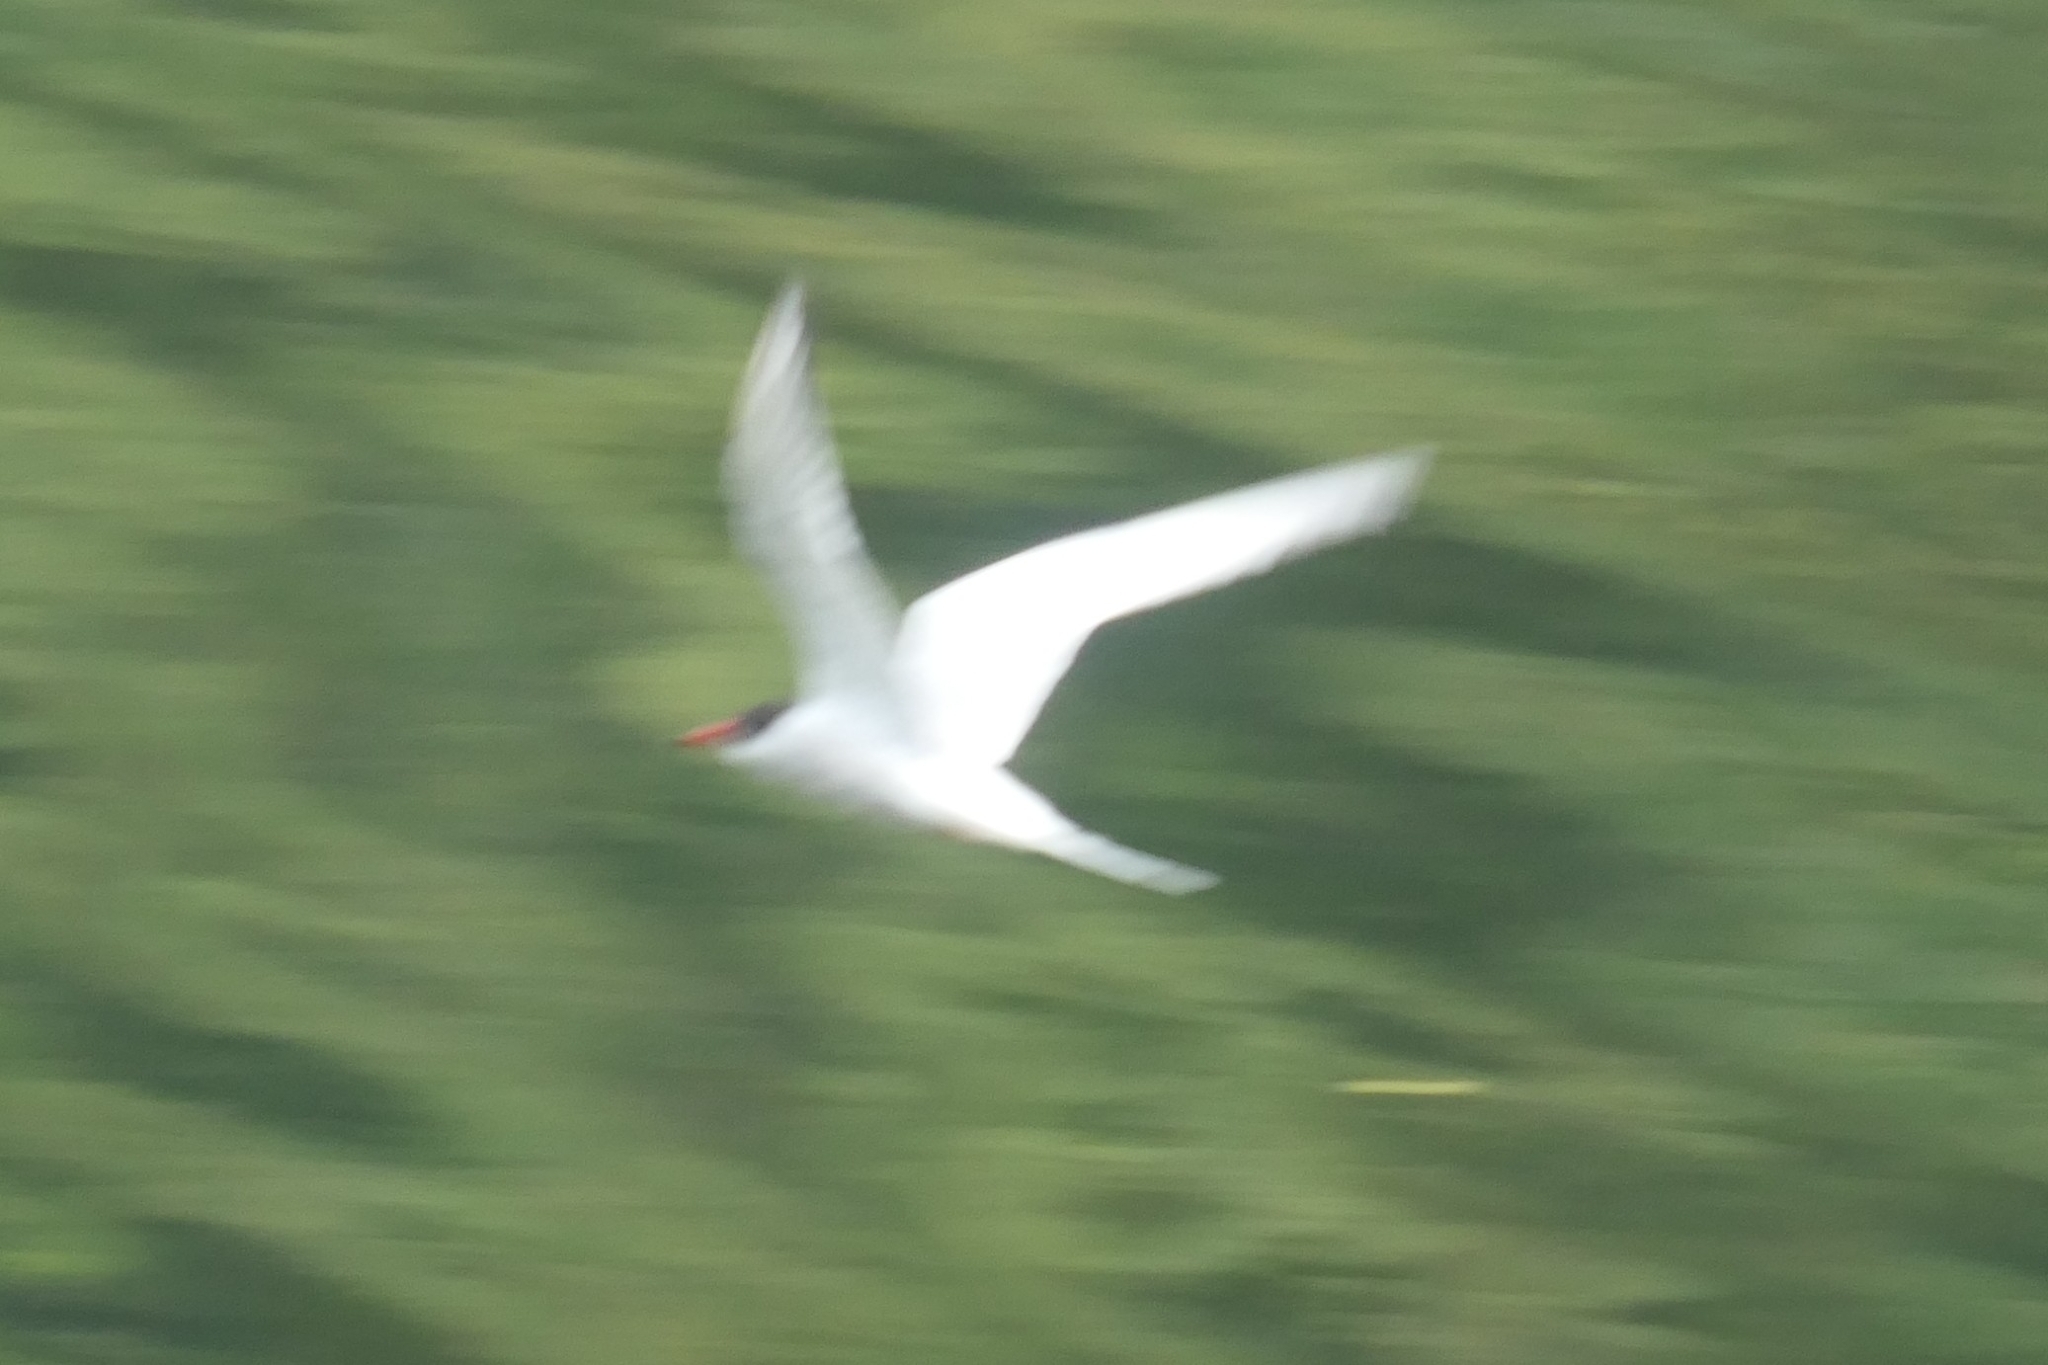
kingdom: Animalia
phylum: Chordata
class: Aves
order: Charadriiformes
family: Laridae
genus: Sterna
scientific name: Sterna hirundo
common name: Common tern
